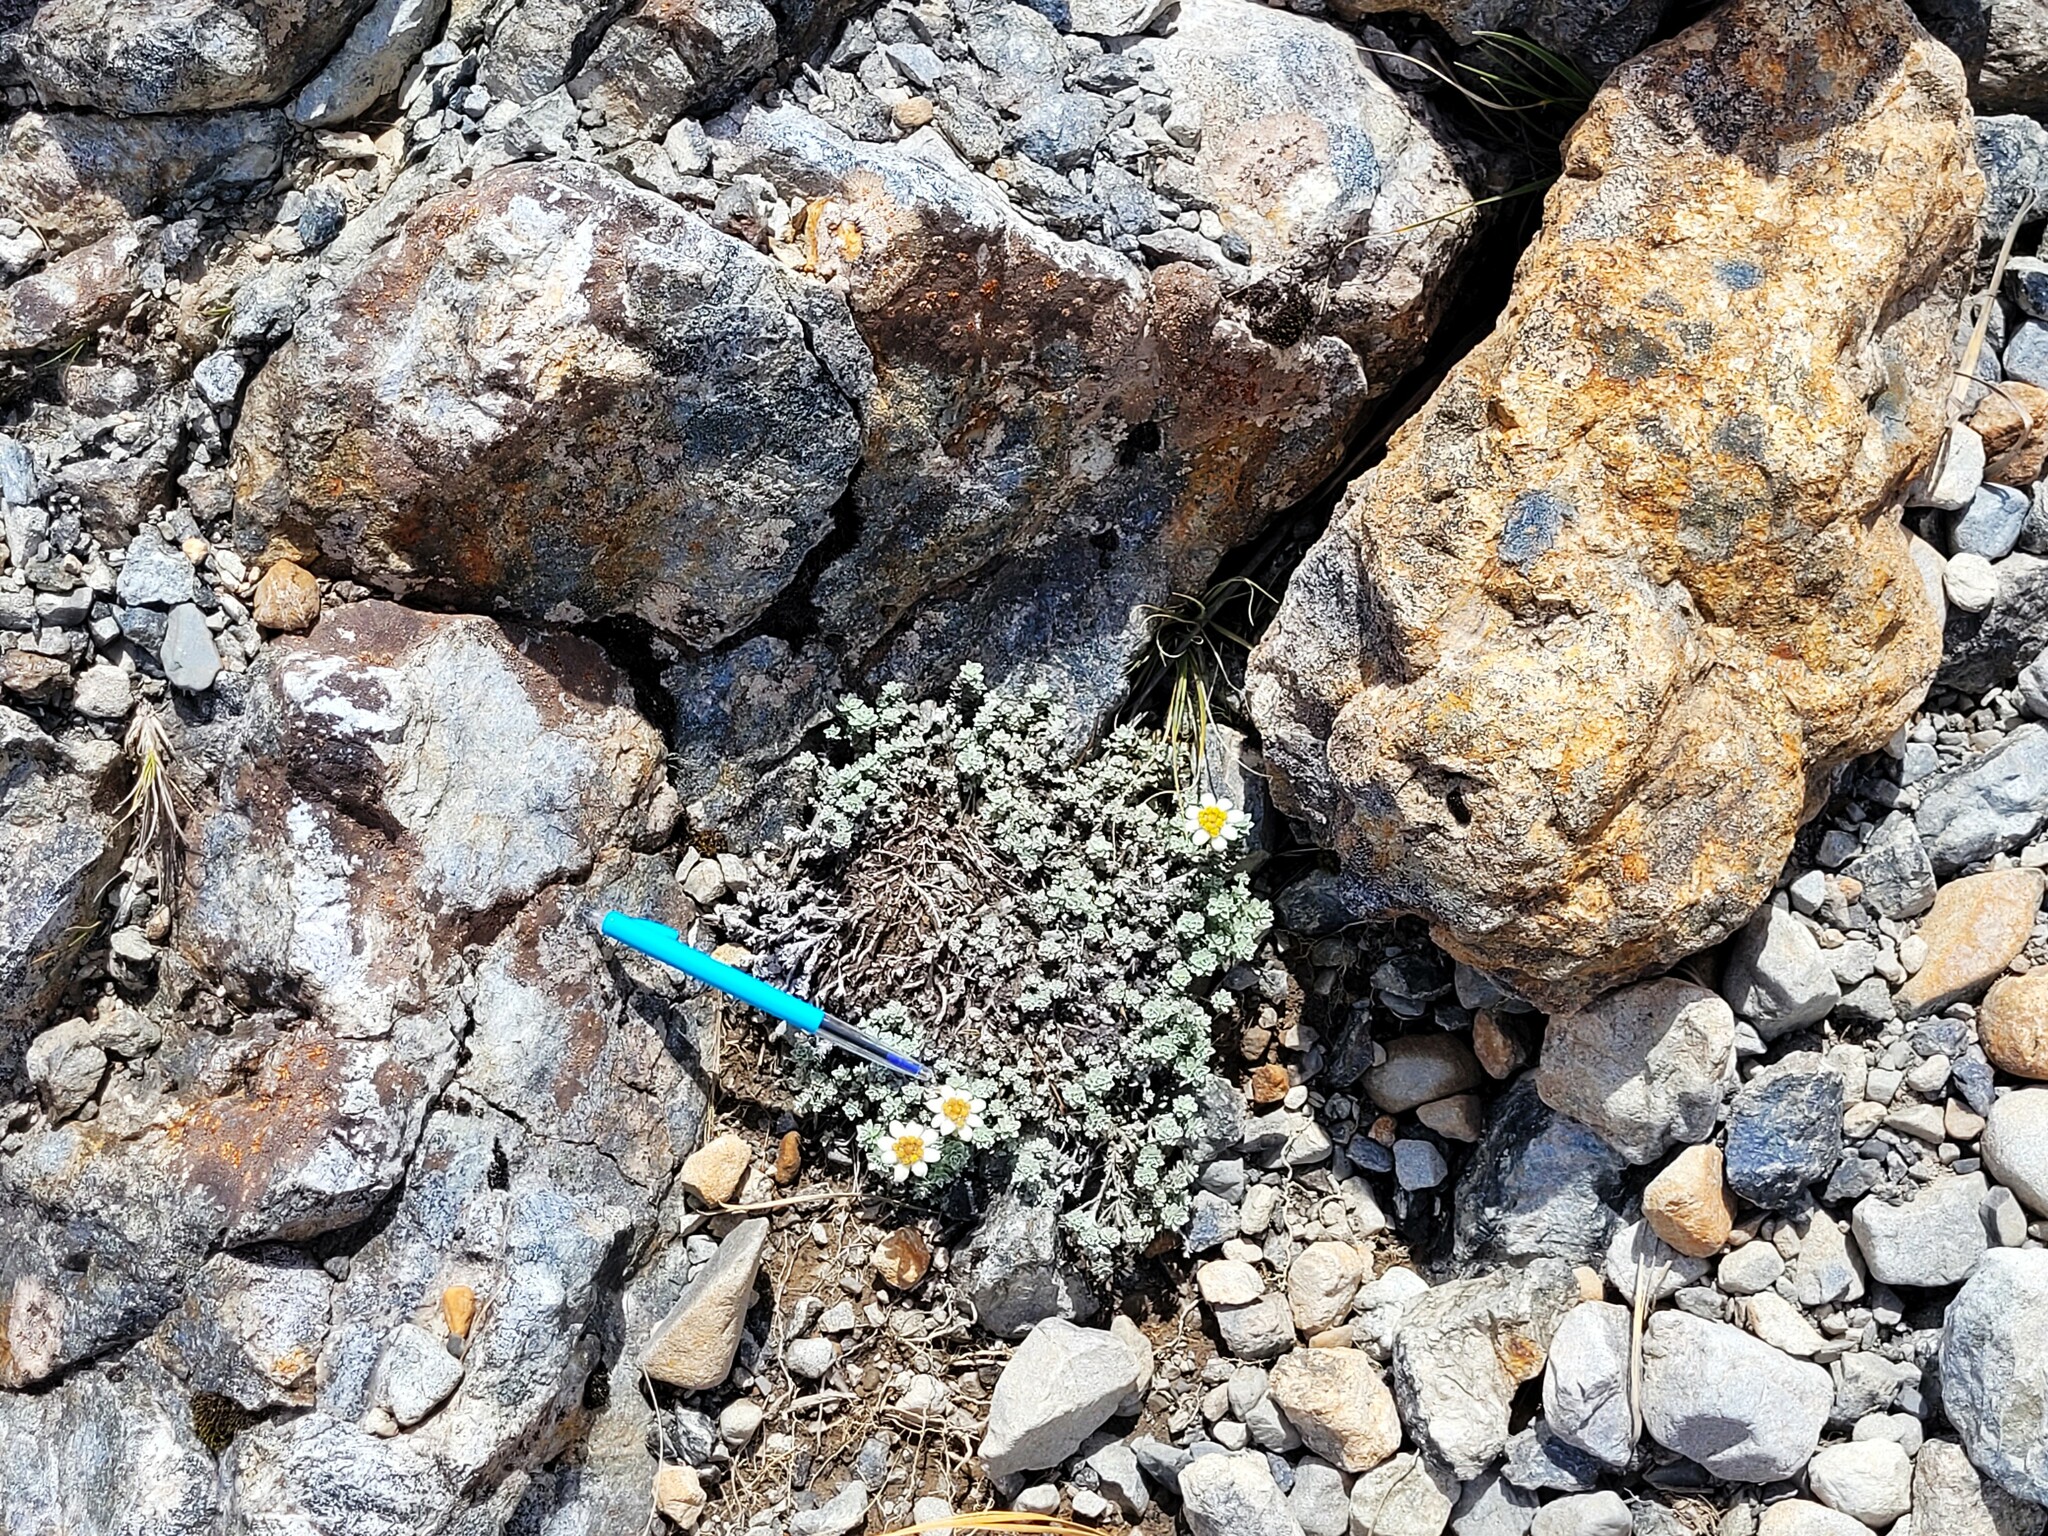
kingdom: Plantae
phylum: Tracheophyta
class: Magnoliopsida
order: Asterales
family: Asteraceae
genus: Leucogenes
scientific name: Leucogenes grandiceps
